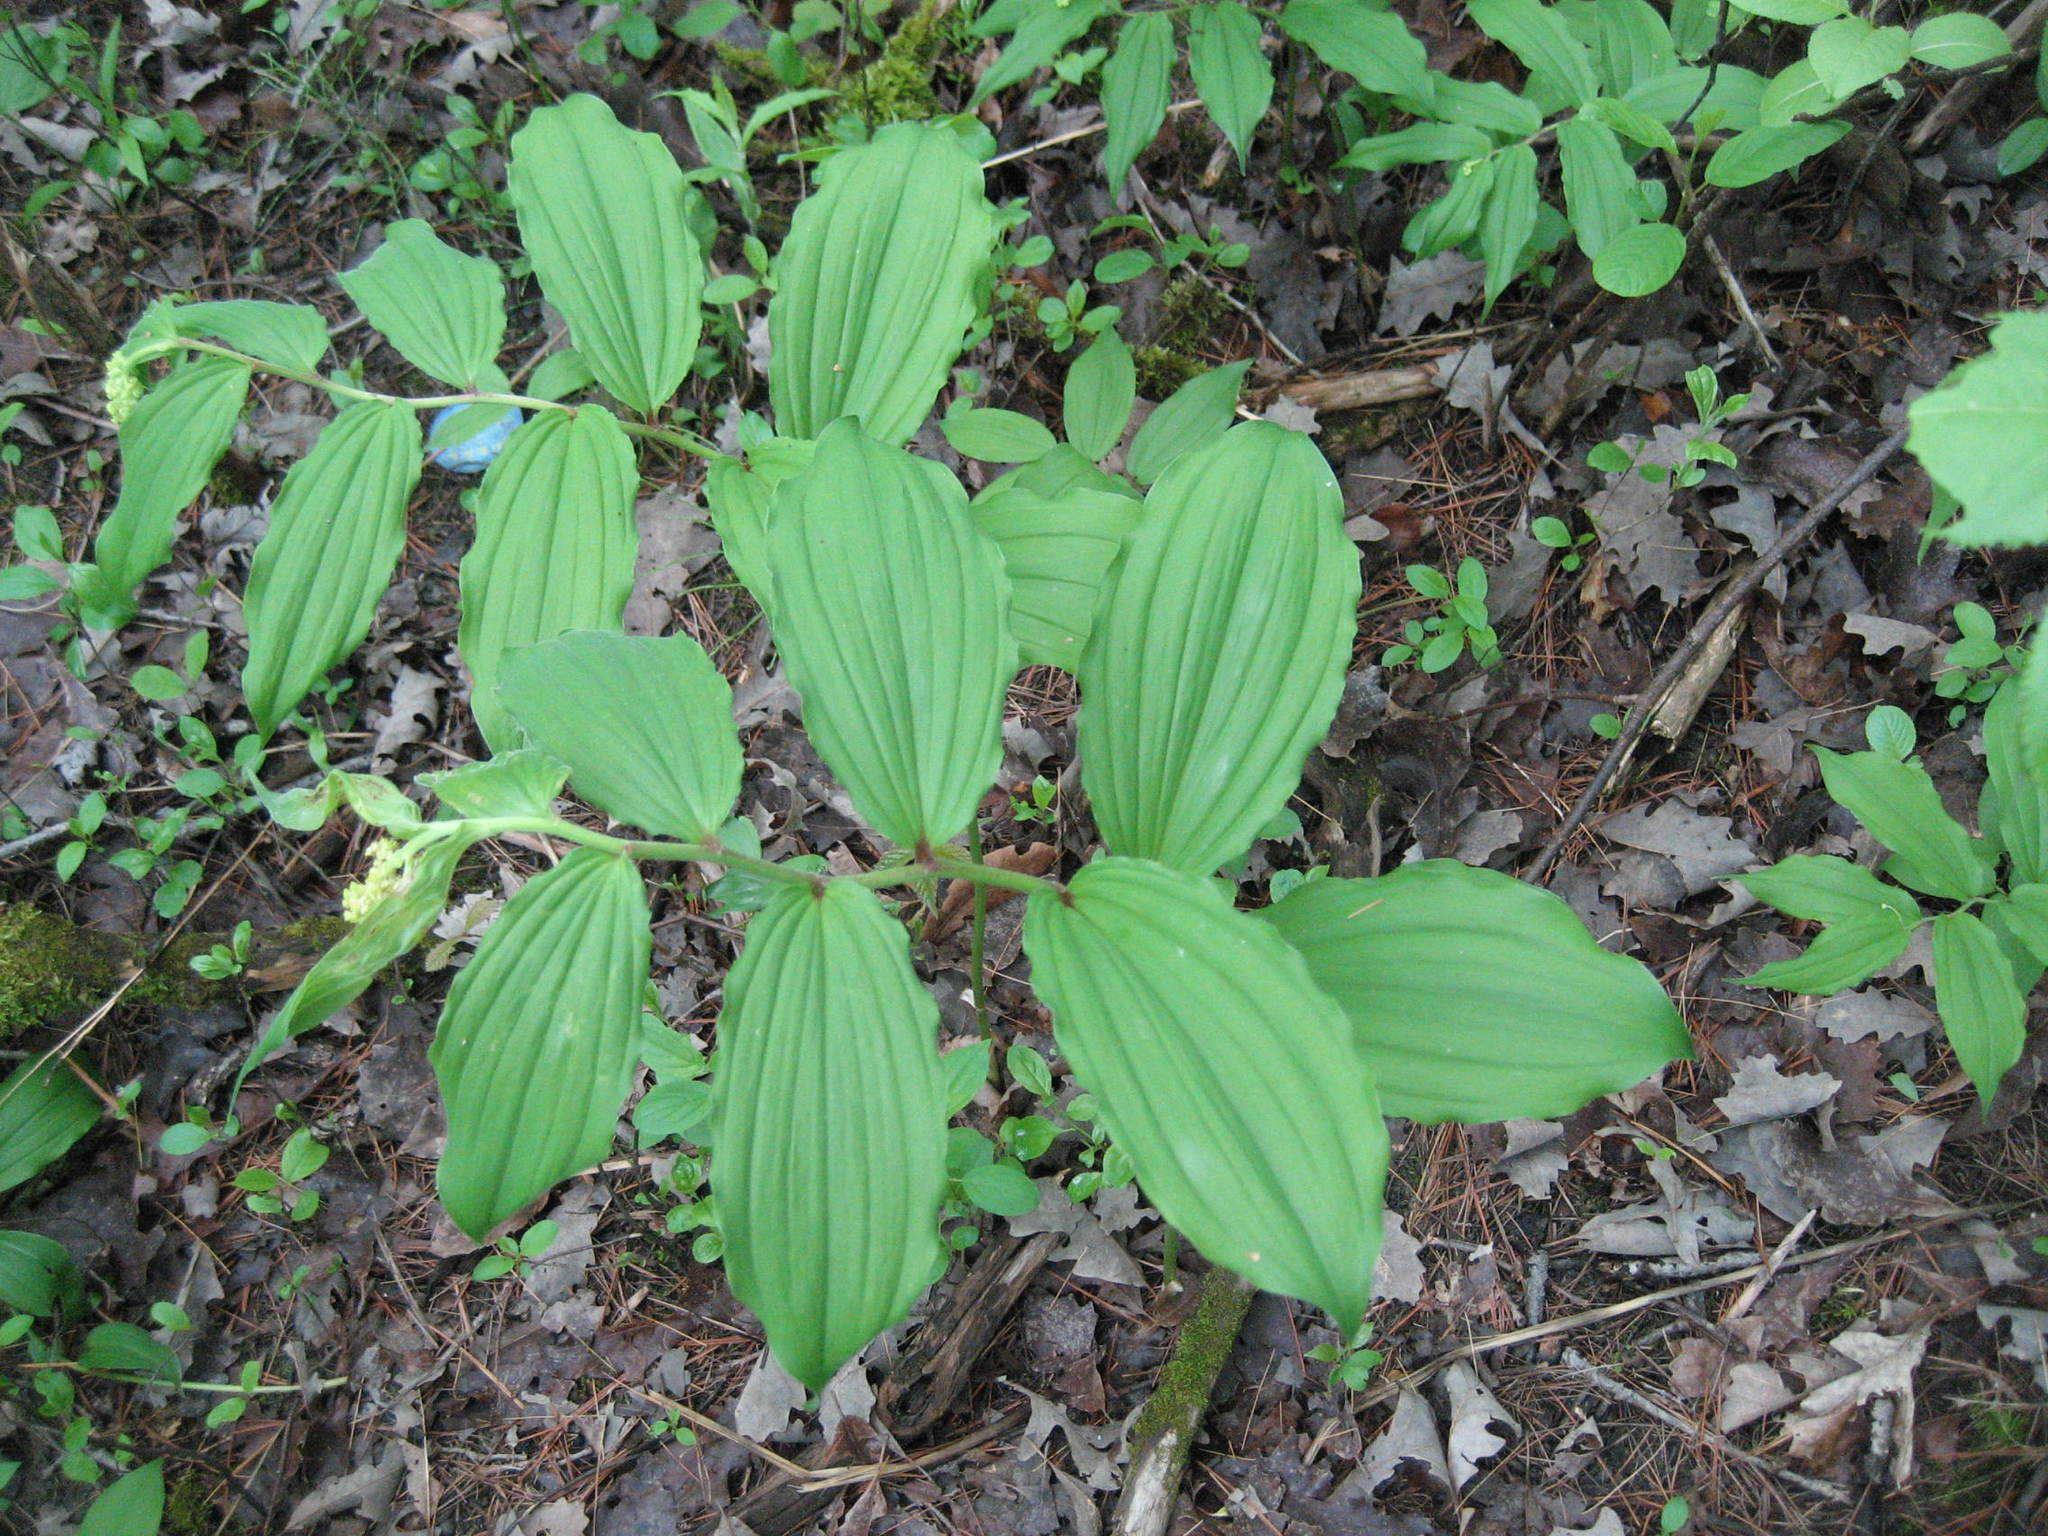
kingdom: Plantae
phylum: Tracheophyta
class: Liliopsida
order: Asparagales
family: Asparagaceae
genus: Maianthemum
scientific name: Maianthemum racemosum
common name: False spikenard
